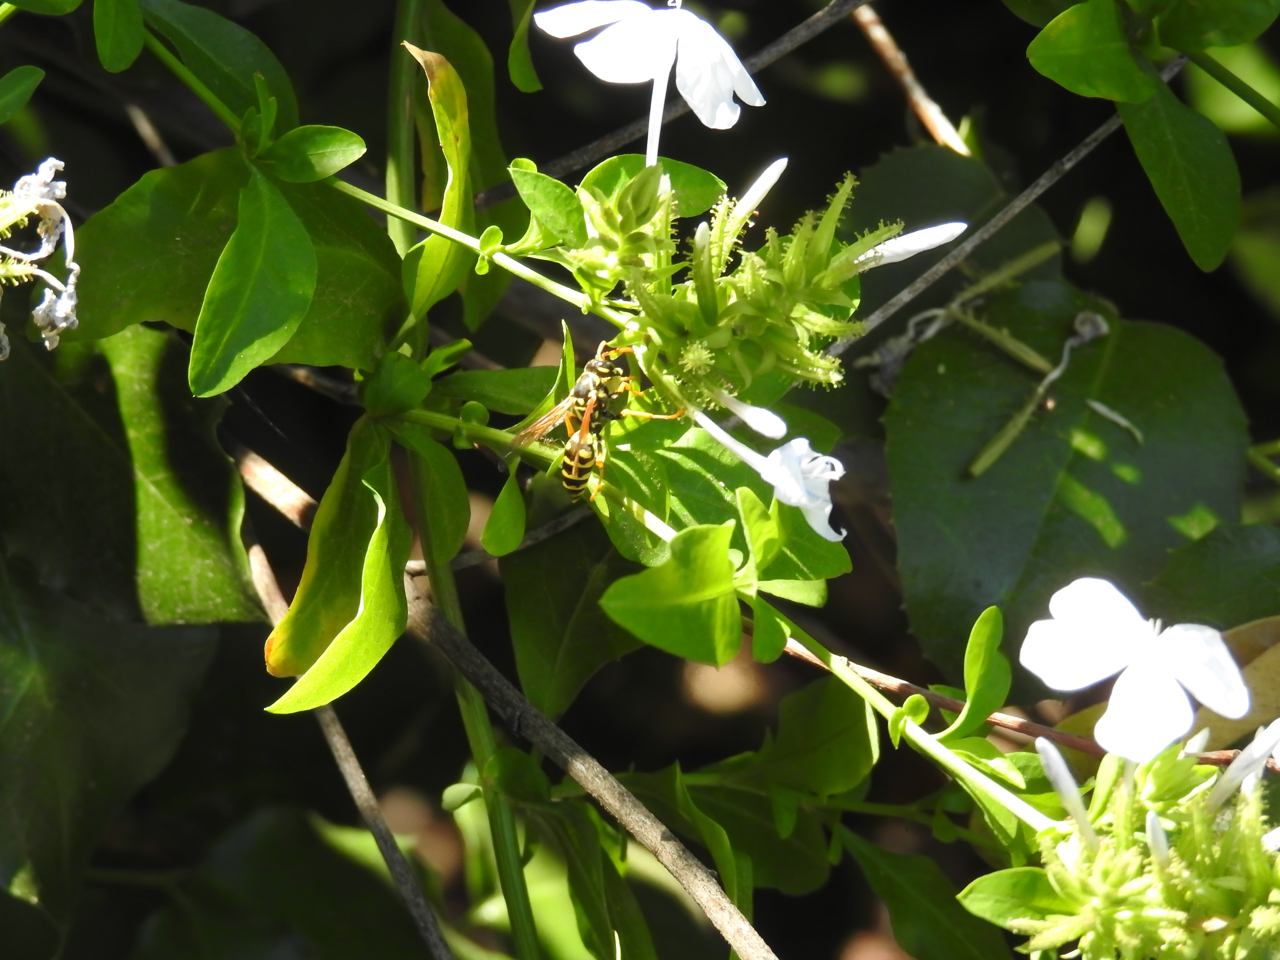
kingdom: Animalia
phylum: Arthropoda
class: Insecta
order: Hymenoptera
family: Eumenidae
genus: Polistes
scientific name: Polistes dominula
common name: Paper wasp
